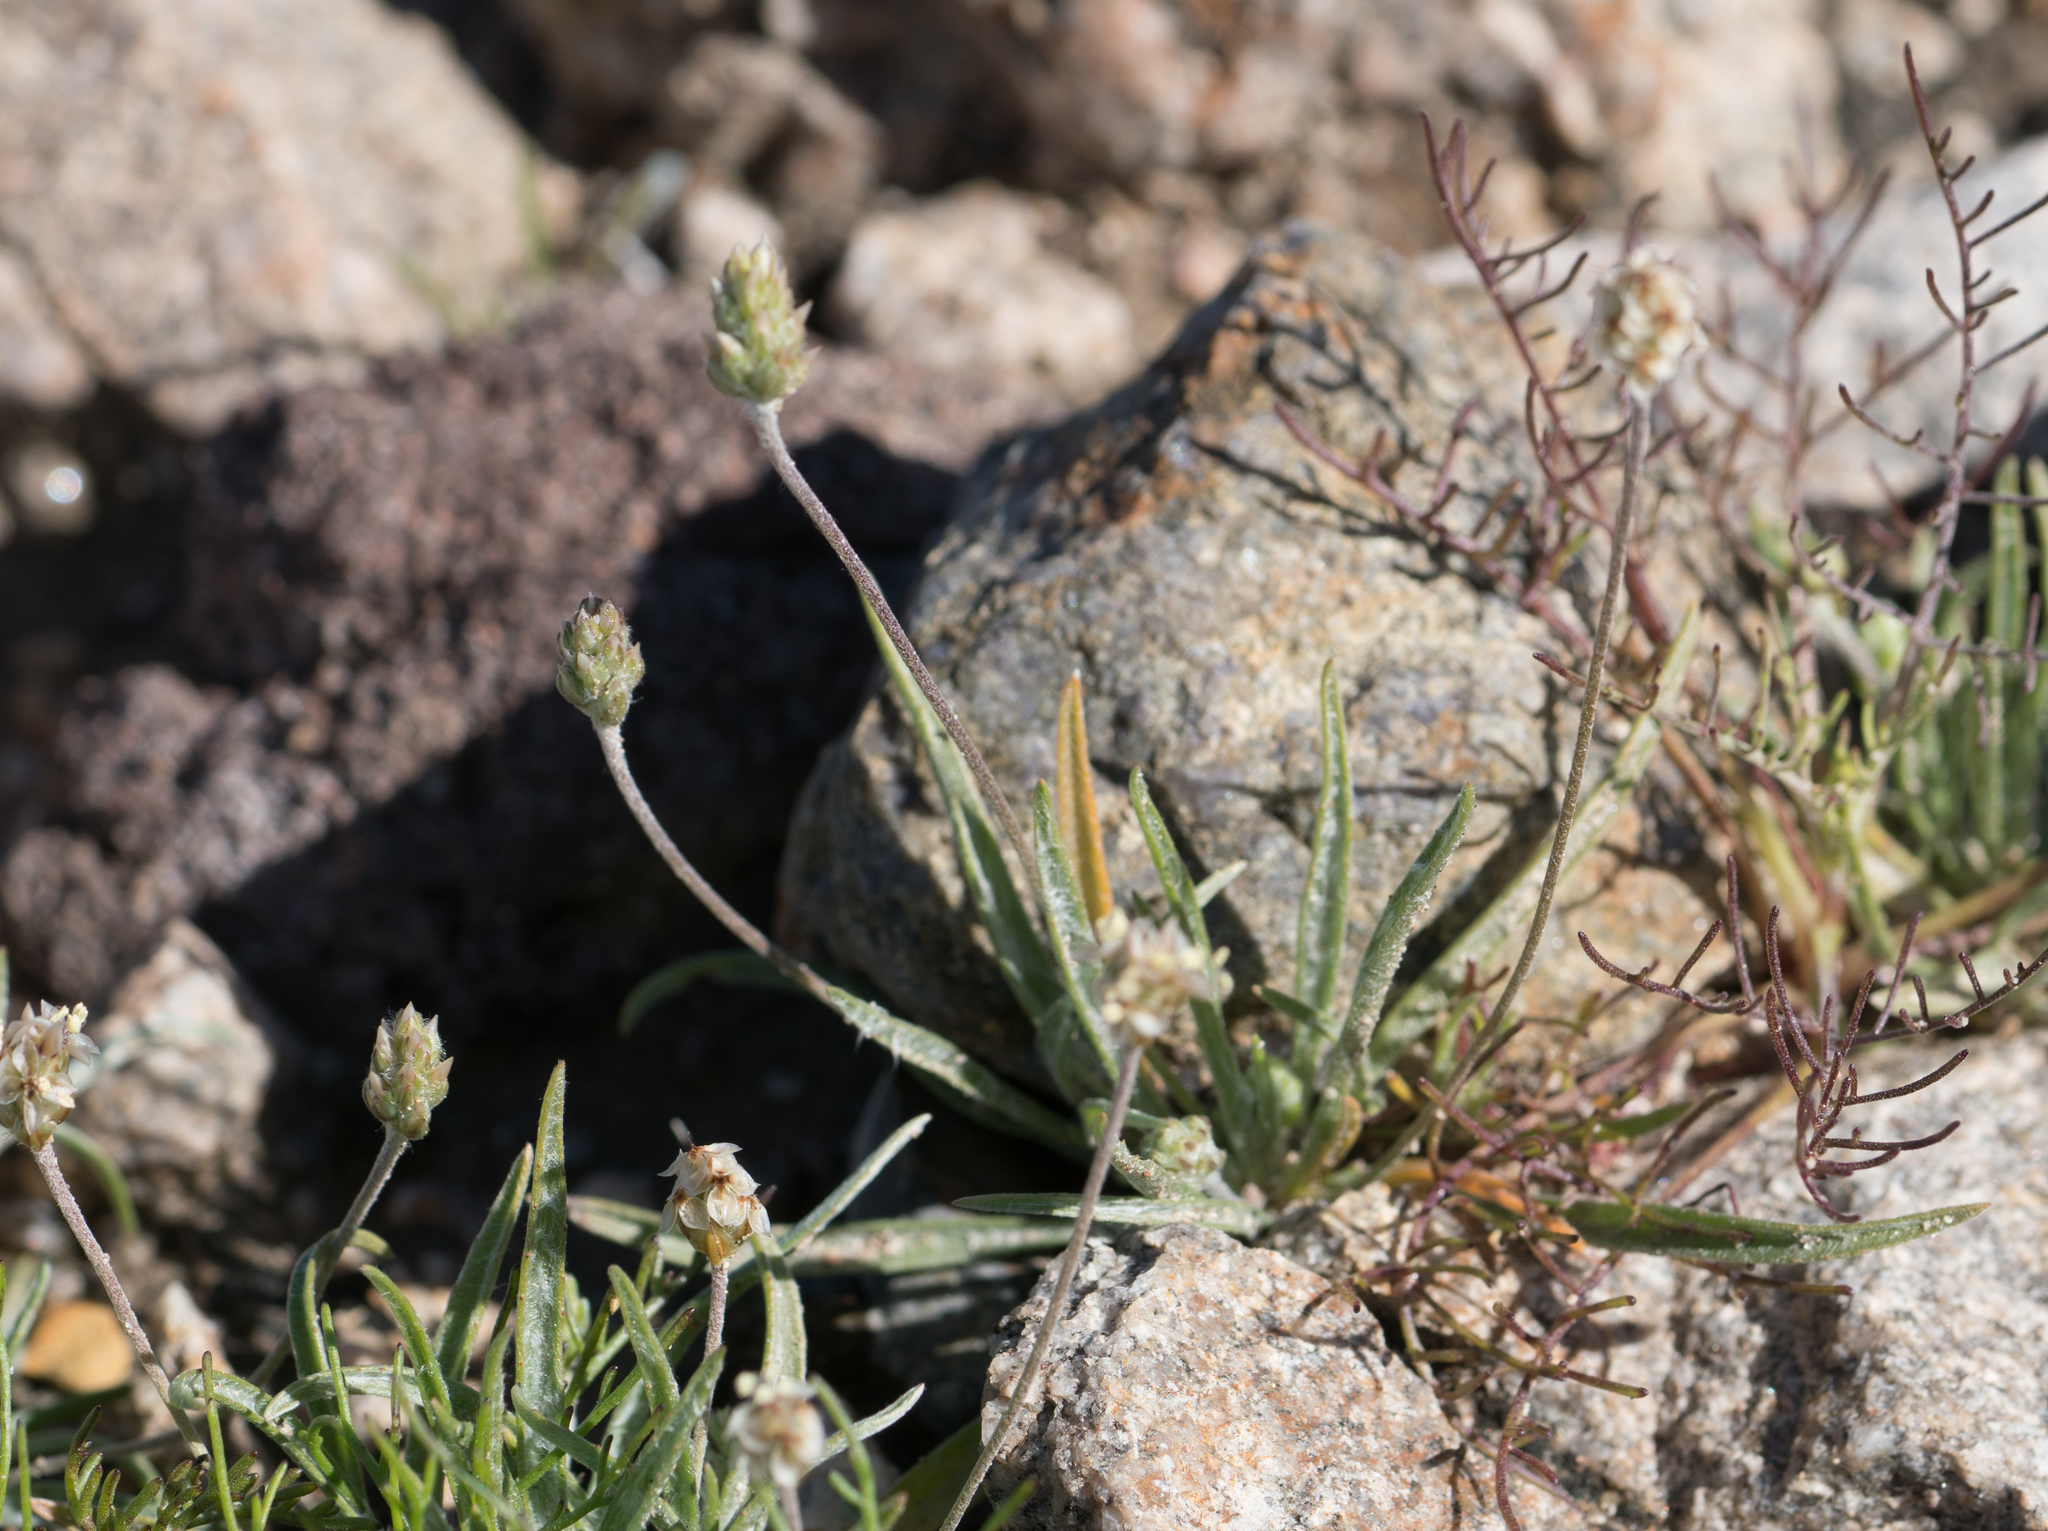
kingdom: Plantae
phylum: Tracheophyta
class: Magnoliopsida
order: Lamiales
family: Plantaginaceae
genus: Plantago
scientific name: Plantago ovata
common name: Blond plantain
